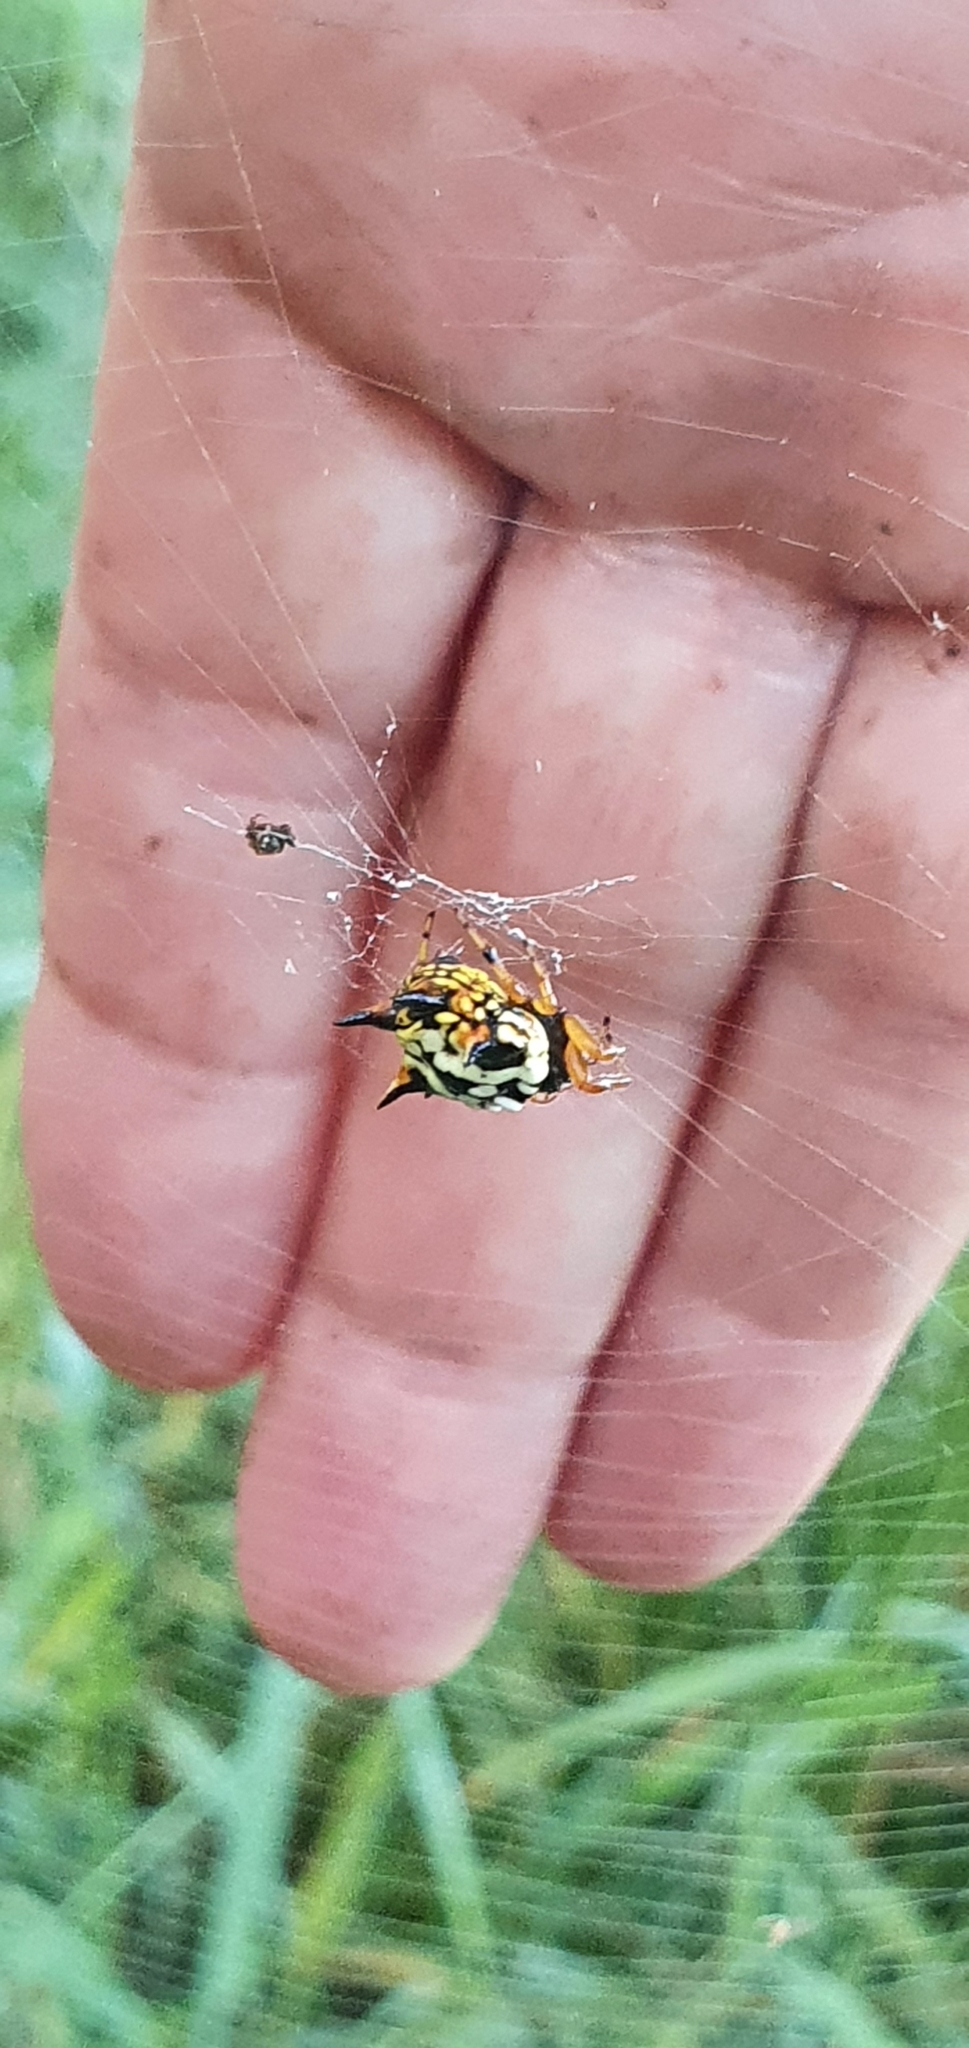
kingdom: Animalia
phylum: Arthropoda
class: Arachnida
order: Araneae
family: Araneidae
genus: Austracantha
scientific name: Austracantha minax
